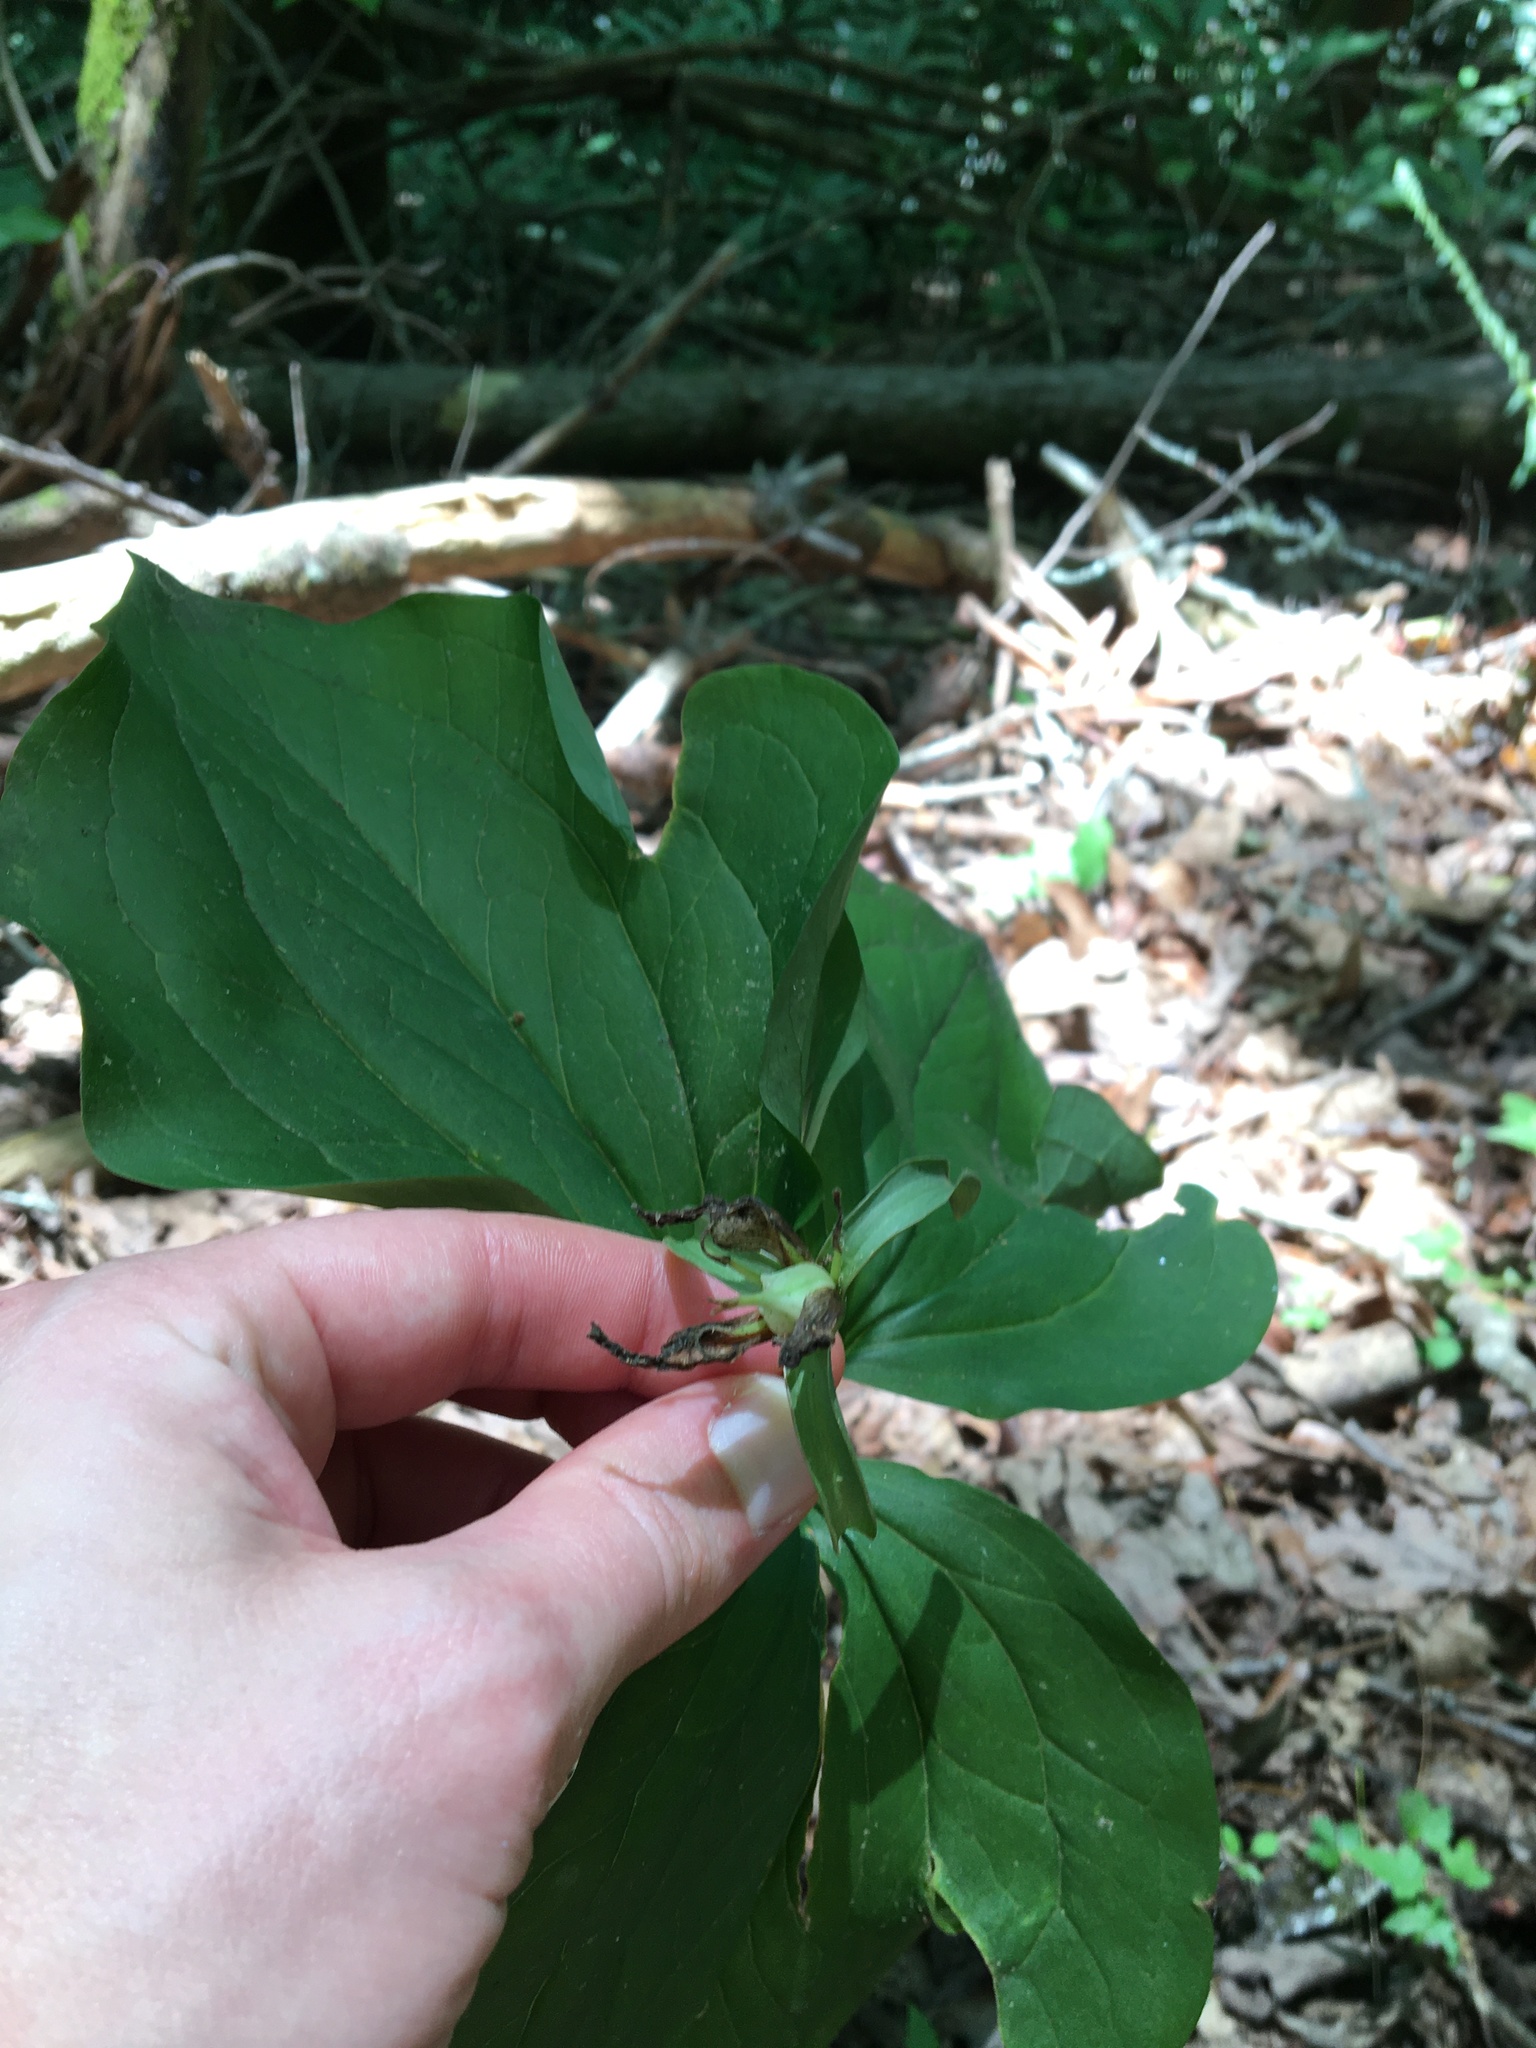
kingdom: Plantae
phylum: Tracheophyta
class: Liliopsida
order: Liliales
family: Melanthiaceae
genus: Trillium
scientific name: Trillium catesbaei
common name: Bashful trillium
